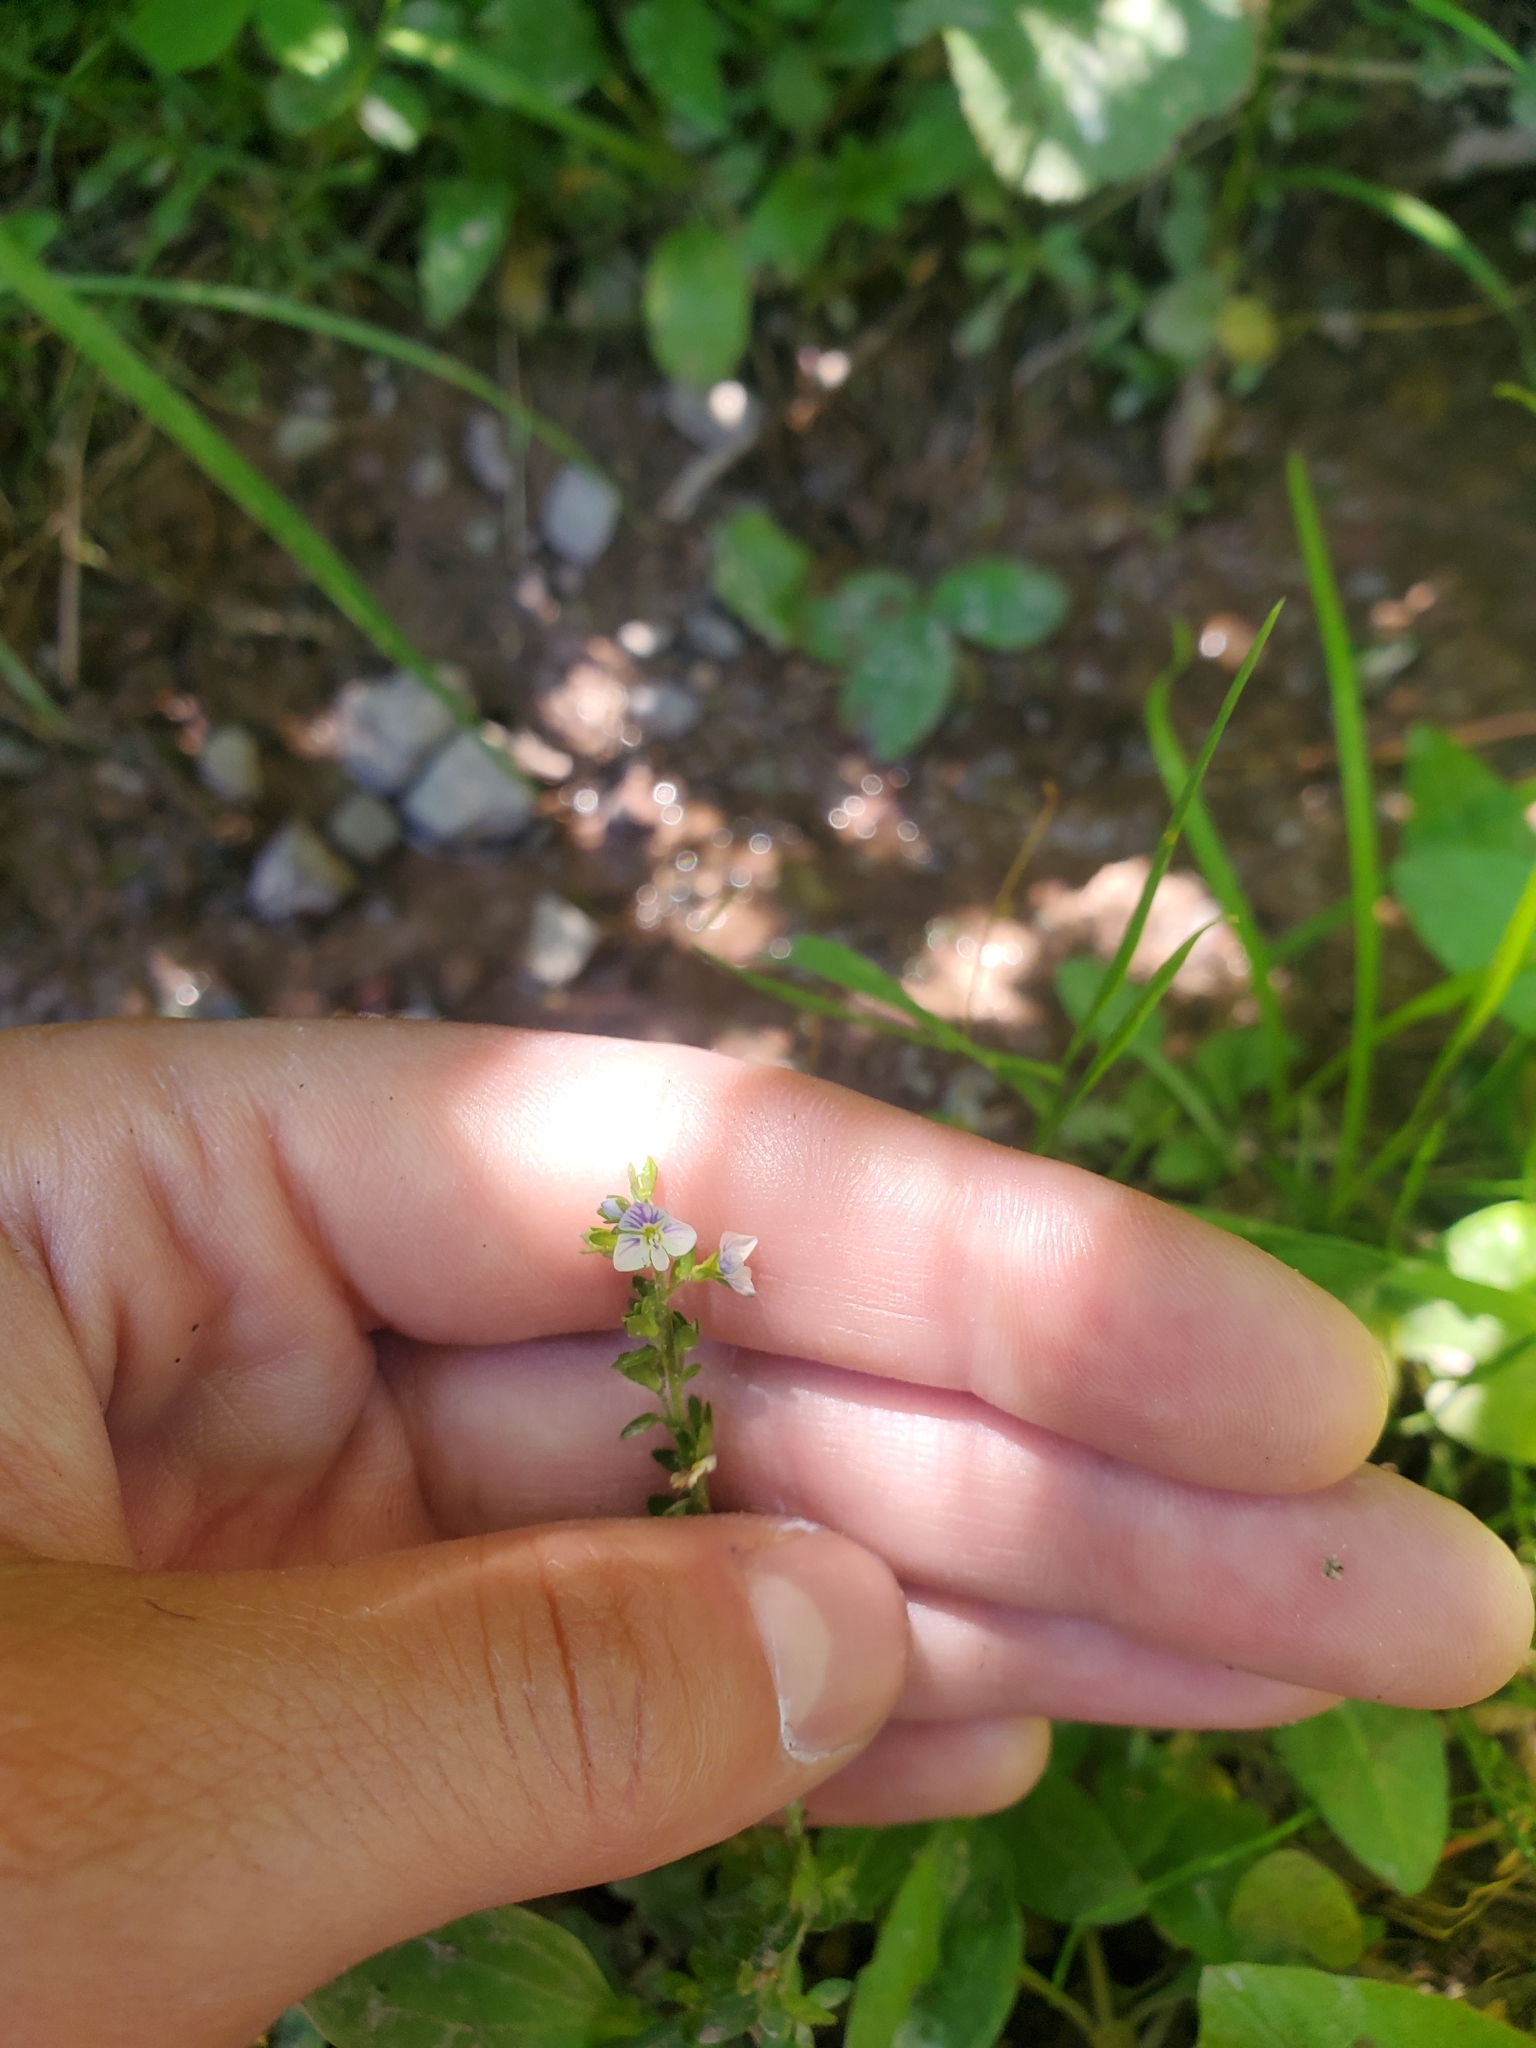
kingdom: Plantae
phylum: Tracheophyta
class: Magnoliopsida
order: Lamiales
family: Plantaginaceae
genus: Veronica
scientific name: Veronica serpyllifolia
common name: Thyme-leaved speedwell
